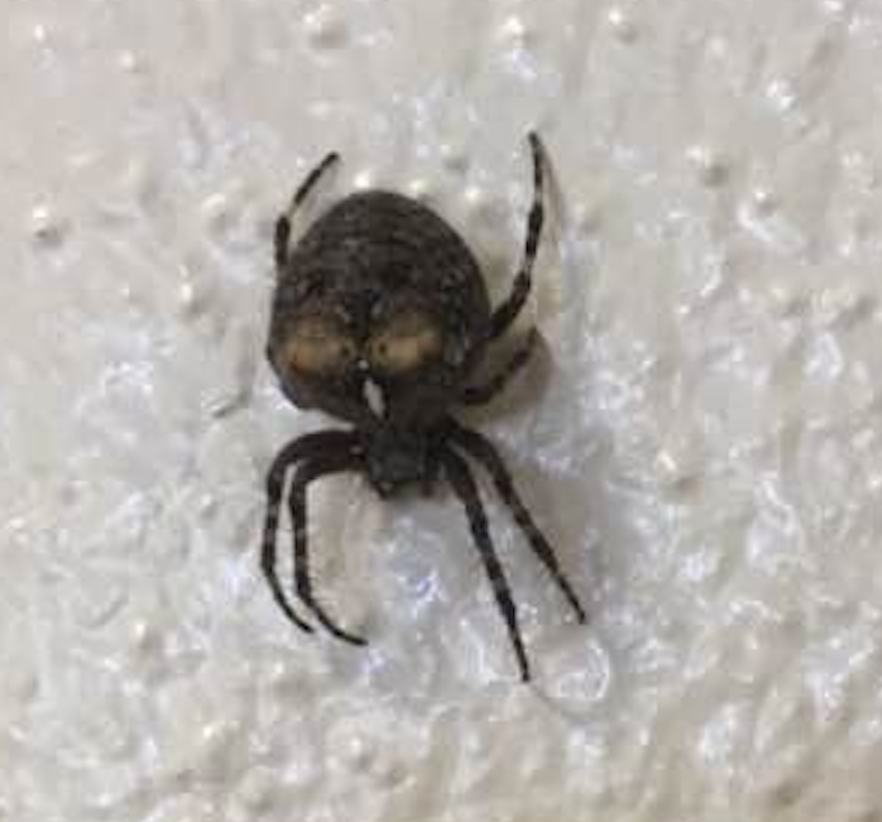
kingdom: Animalia
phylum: Arthropoda
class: Arachnida
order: Araneae
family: Araneidae
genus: Araneus
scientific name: Araneus saevus
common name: Fierce orbweaver
